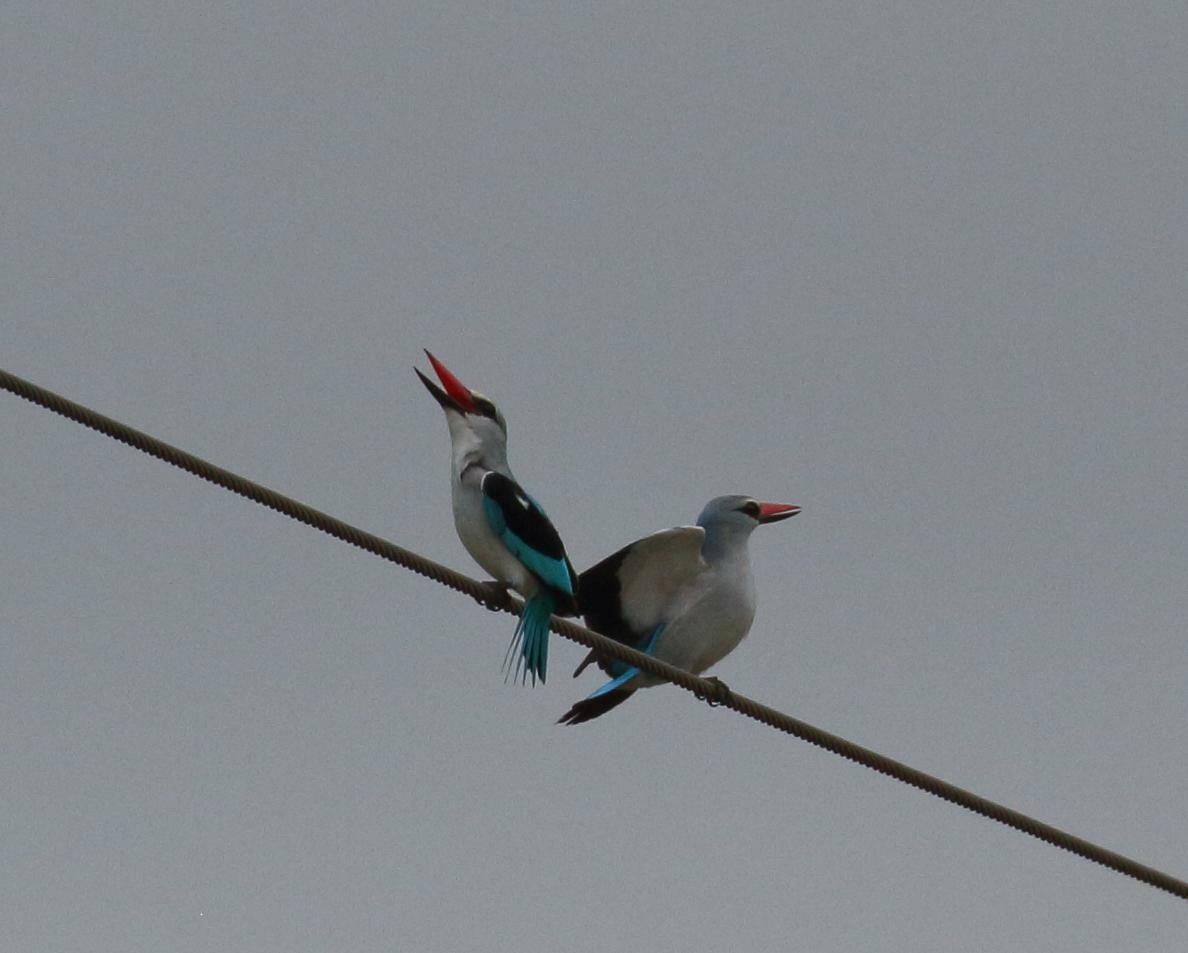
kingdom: Animalia
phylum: Chordata
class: Aves
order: Coraciiformes
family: Alcedinidae
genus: Halcyon
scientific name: Halcyon senegalensis
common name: Woodland kingfisher
